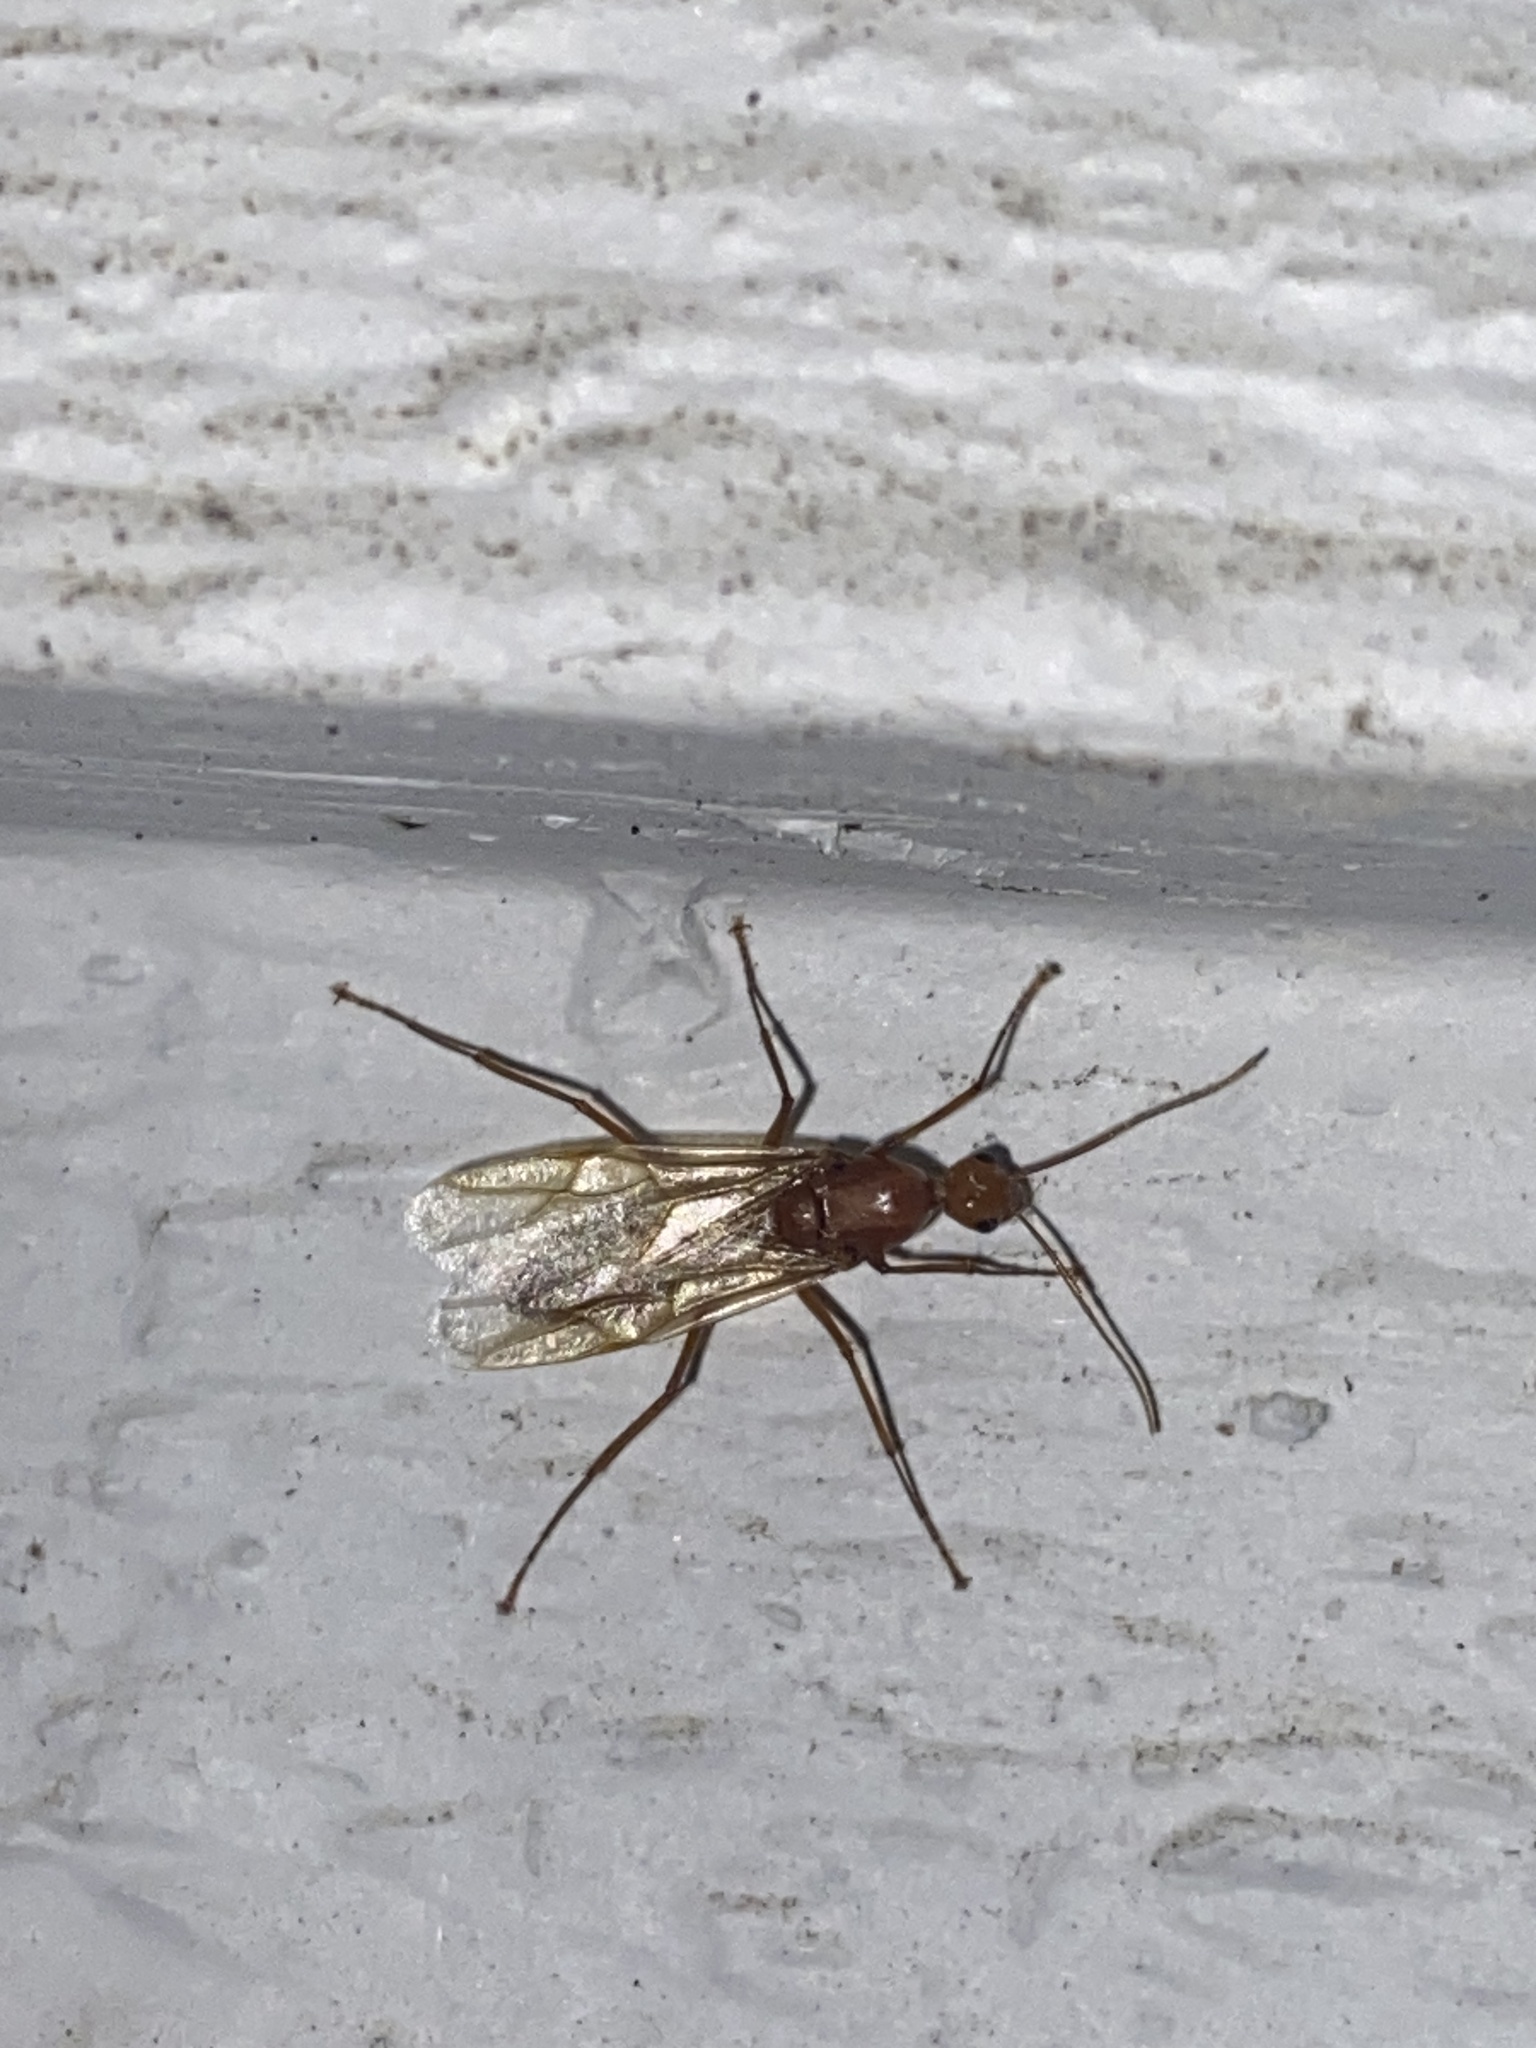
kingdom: Animalia
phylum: Arthropoda
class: Insecta
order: Hymenoptera
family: Formicidae
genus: Camponotus
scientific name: Camponotus castaneus
